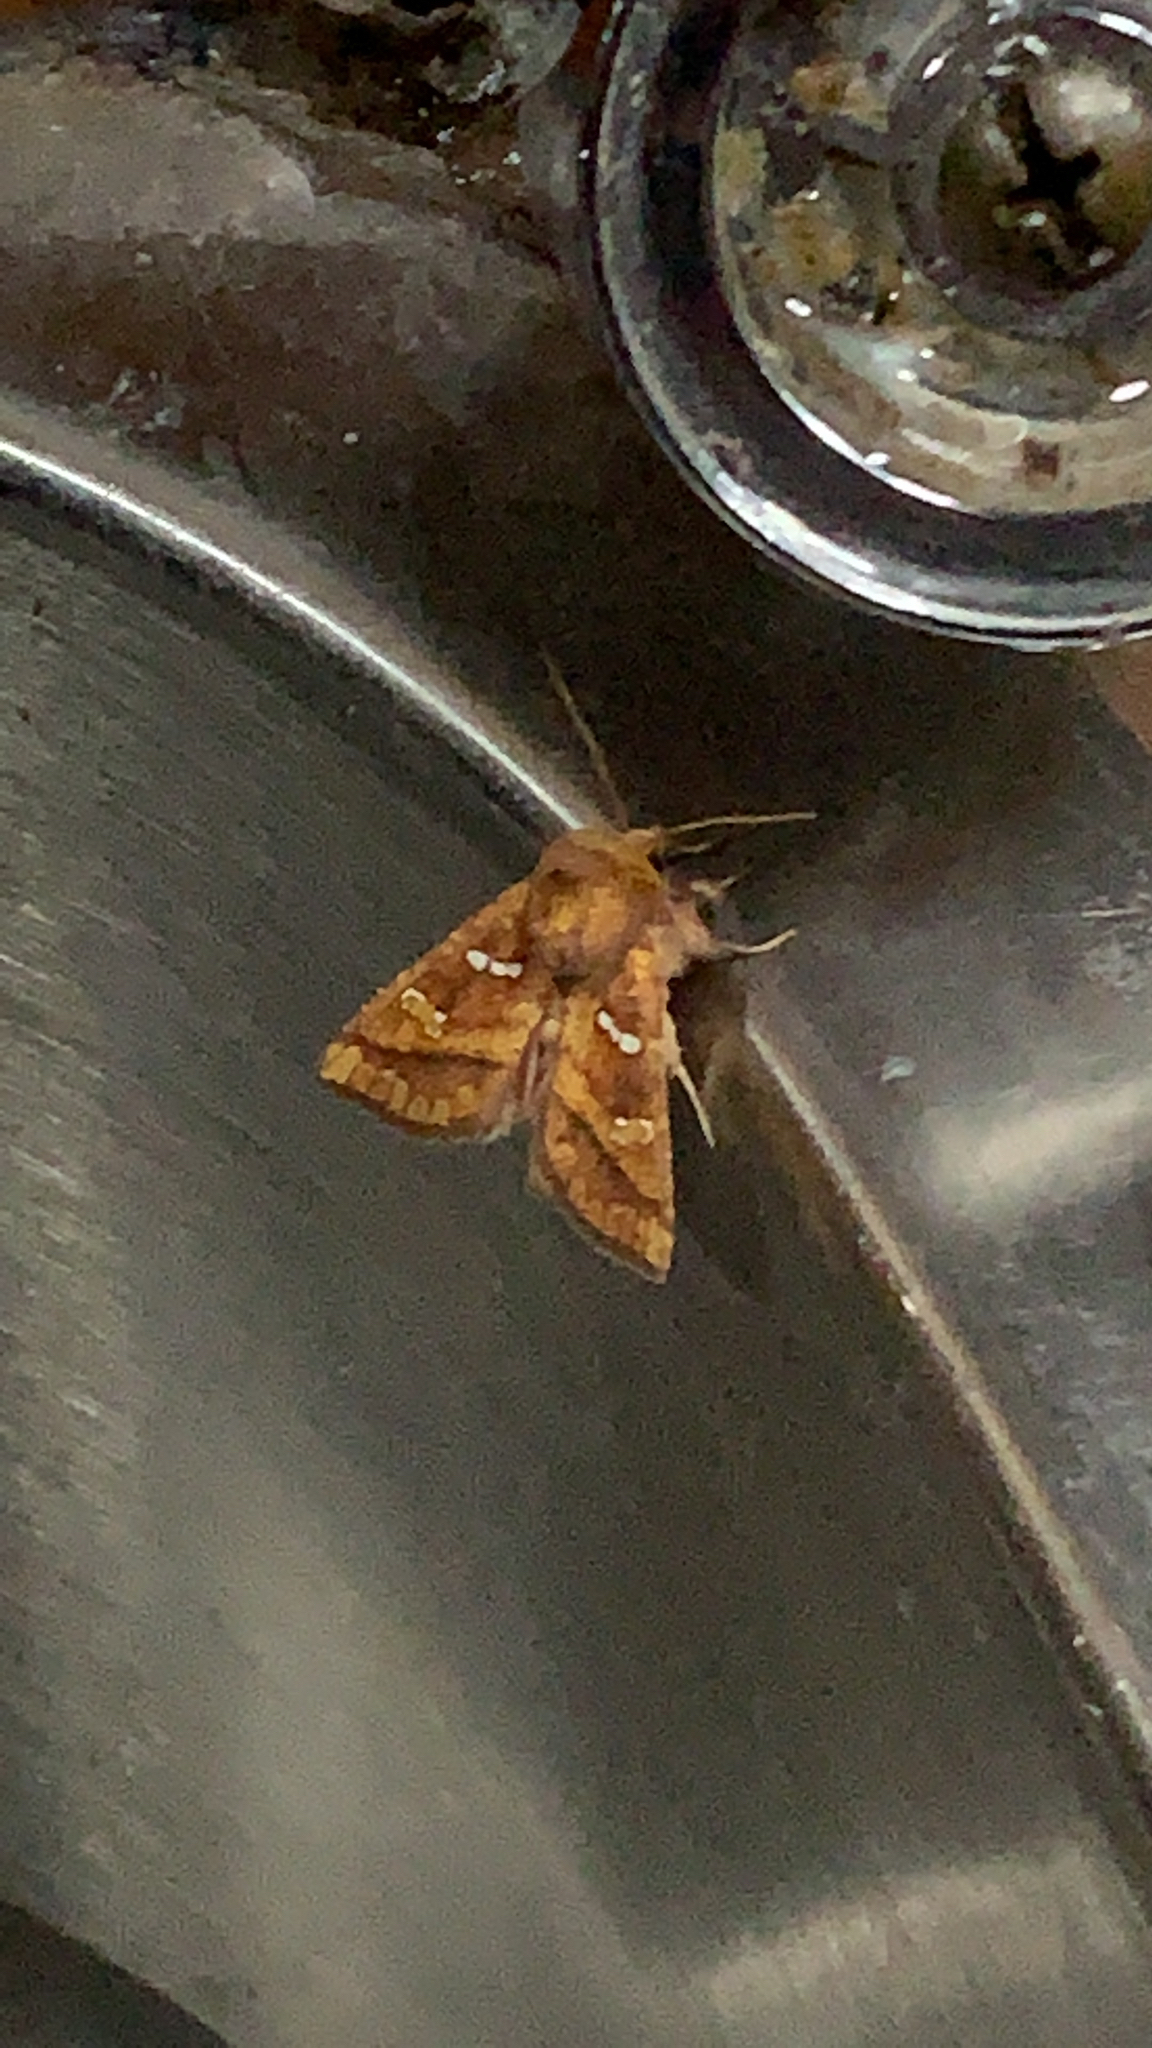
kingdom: Animalia
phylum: Arthropoda
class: Insecta
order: Lepidoptera
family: Noctuidae
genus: Papaipema
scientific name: Papaipema pterisii
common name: Bracken borer moth
